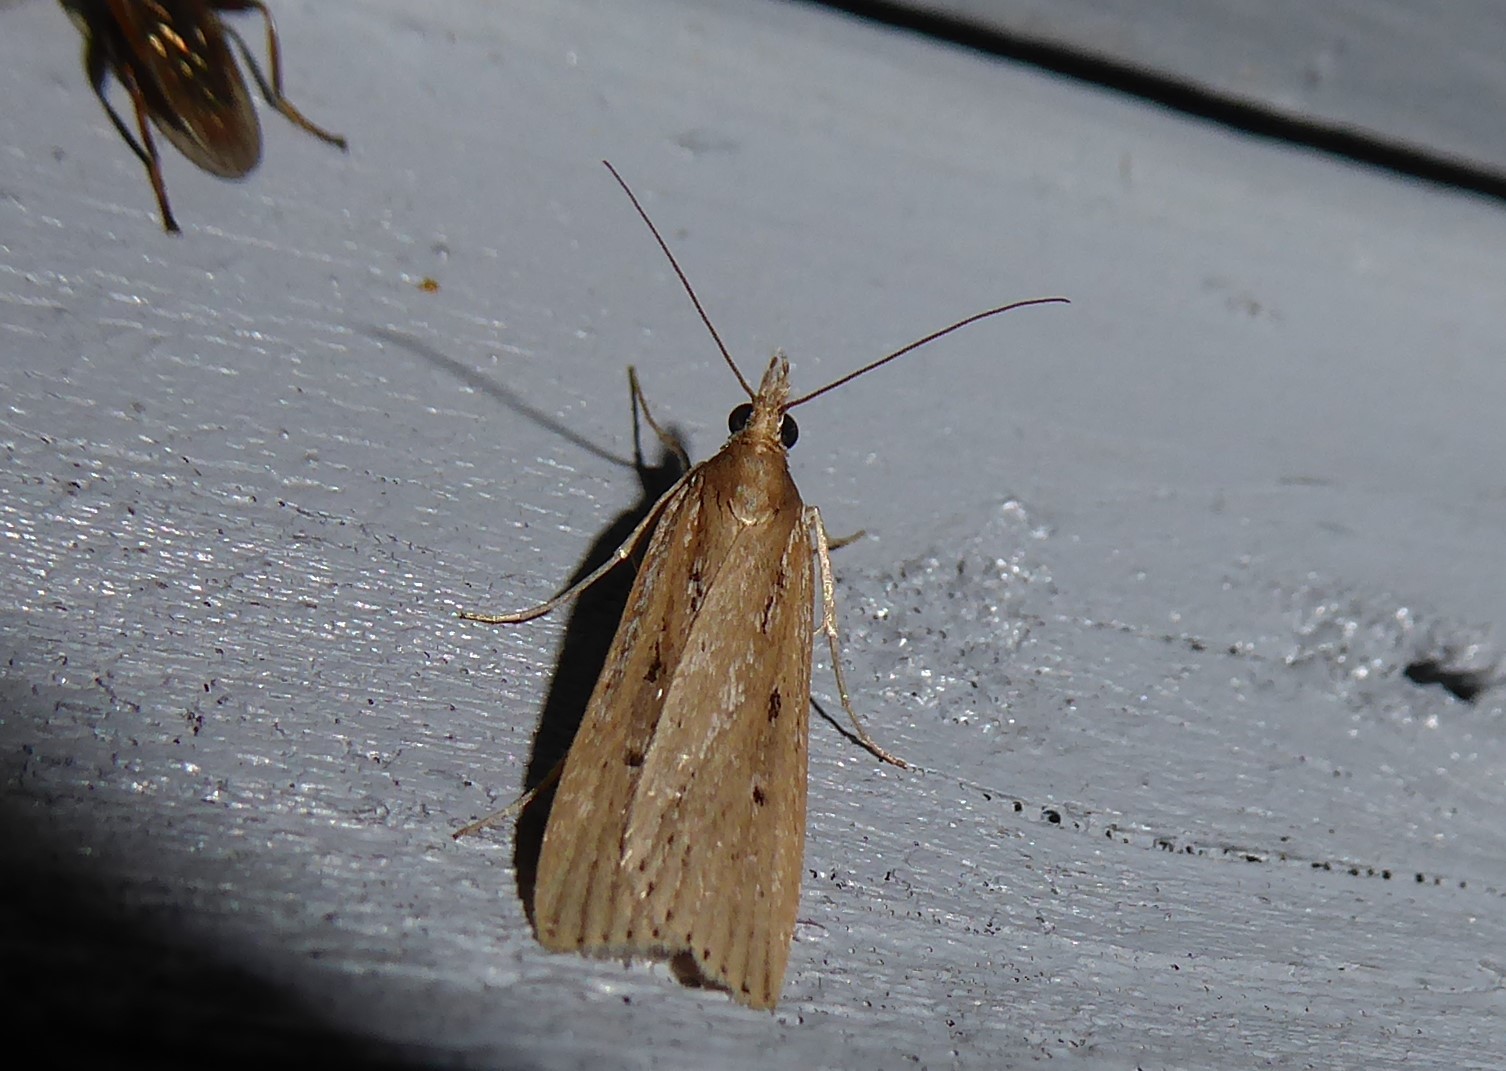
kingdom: Animalia
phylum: Arthropoda
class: Insecta
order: Lepidoptera
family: Crambidae
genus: Eudonia
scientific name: Eudonia sabulosella
